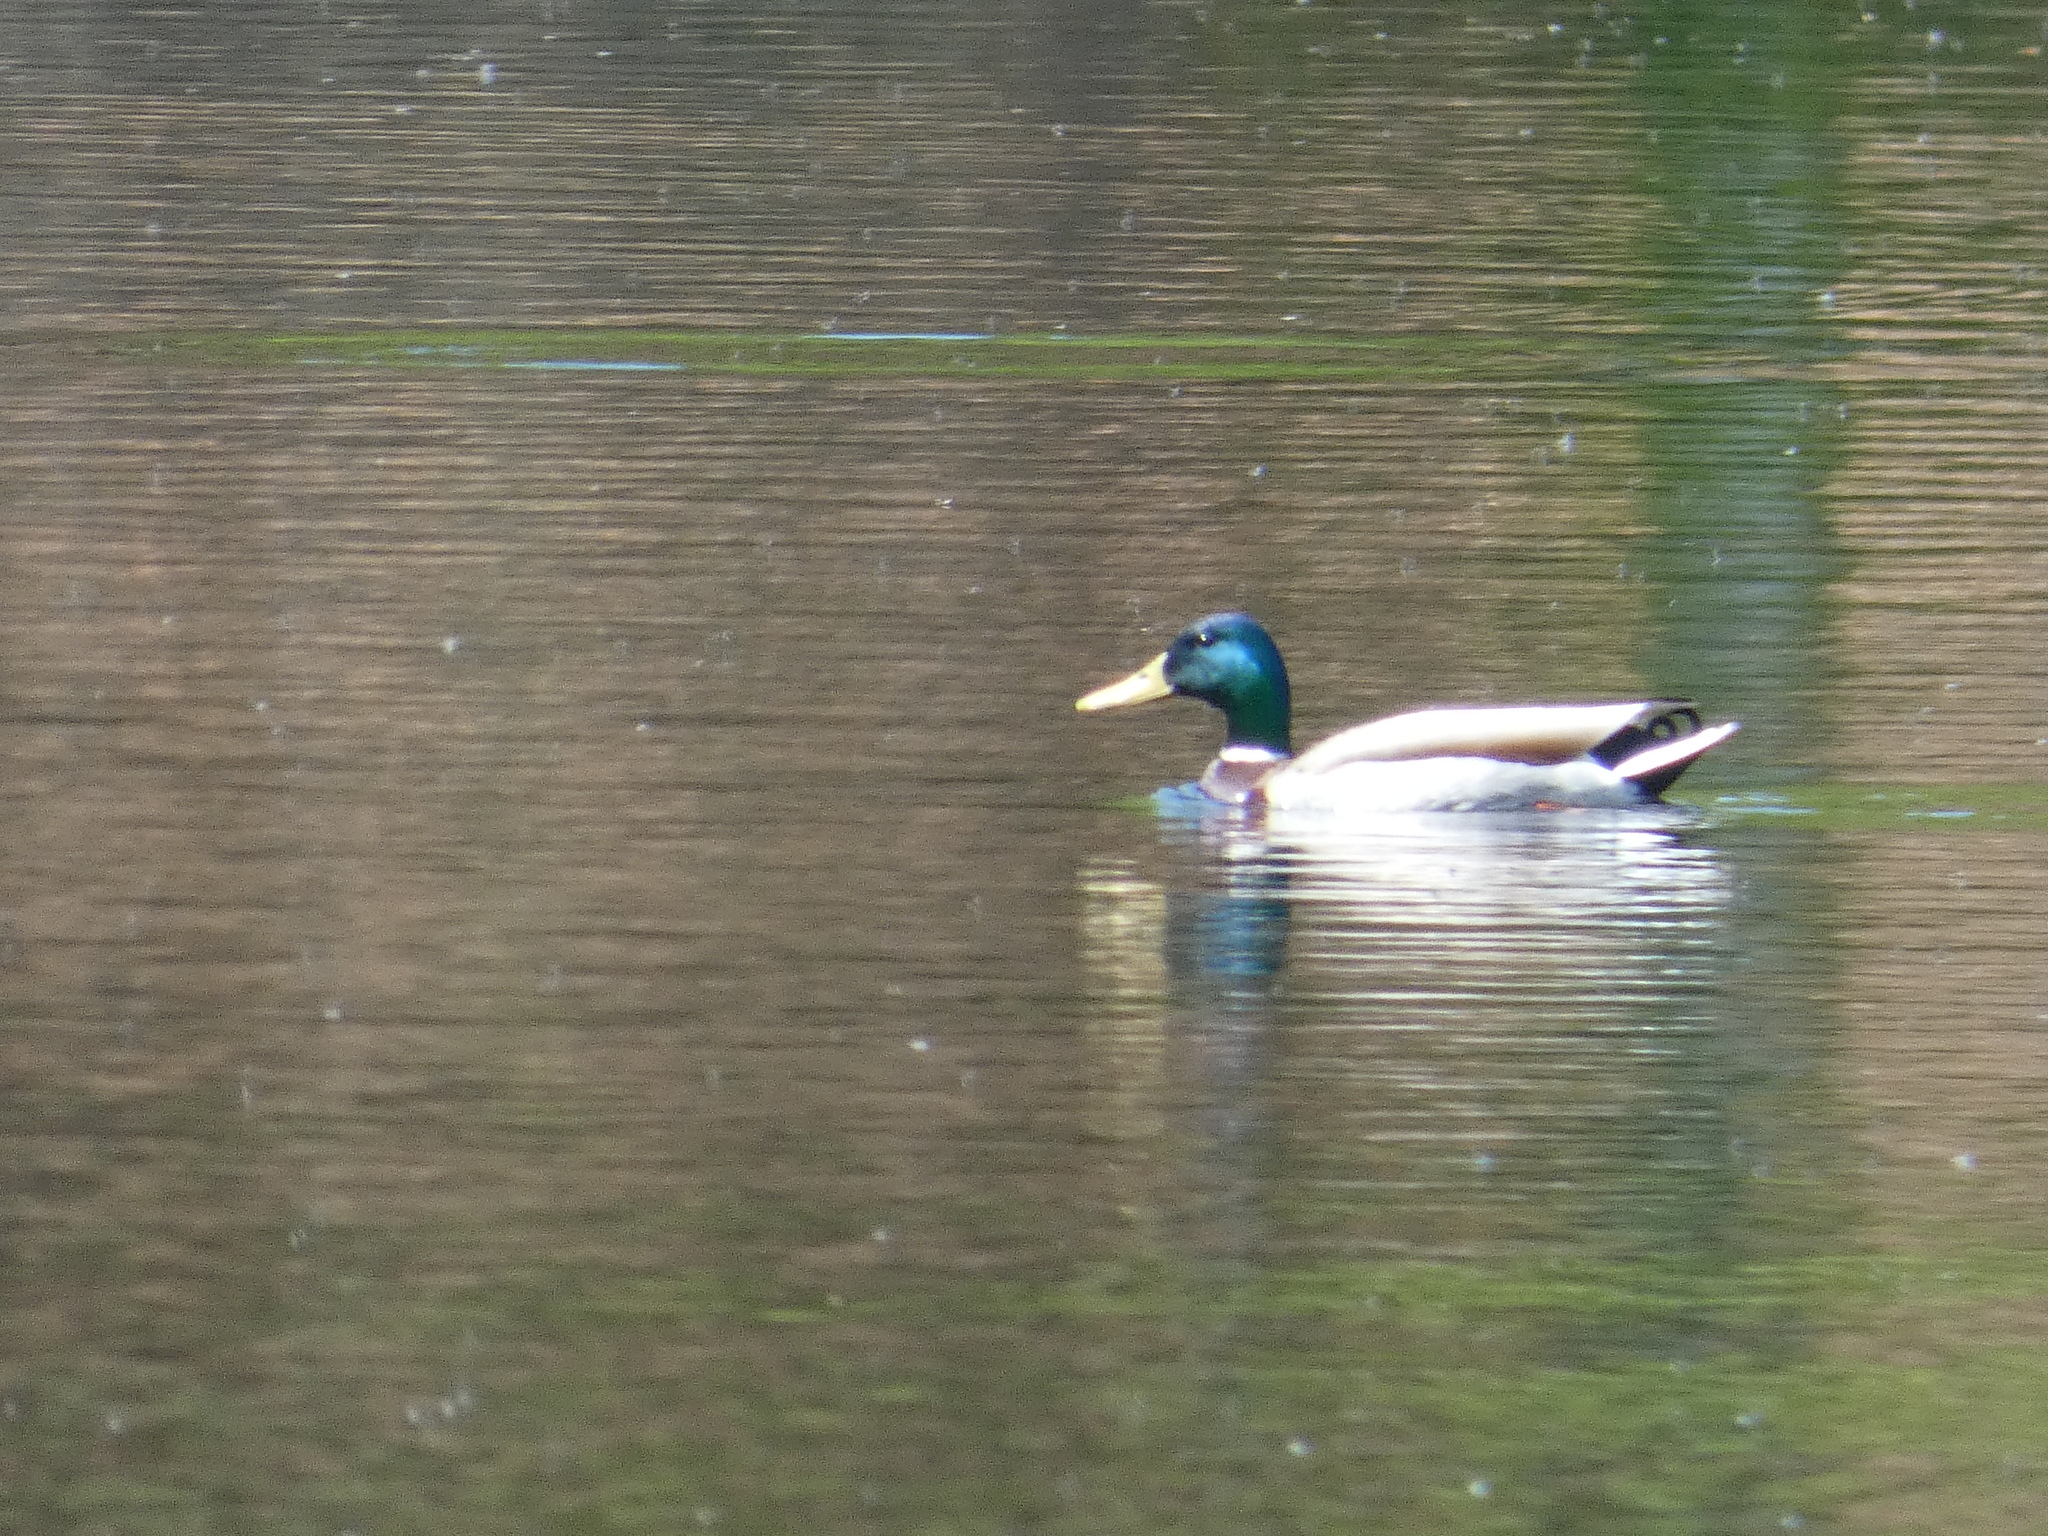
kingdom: Animalia
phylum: Chordata
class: Aves
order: Anseriformes
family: Anatidae
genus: Anas
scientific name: Anas platyrhynchos
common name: Mallard
